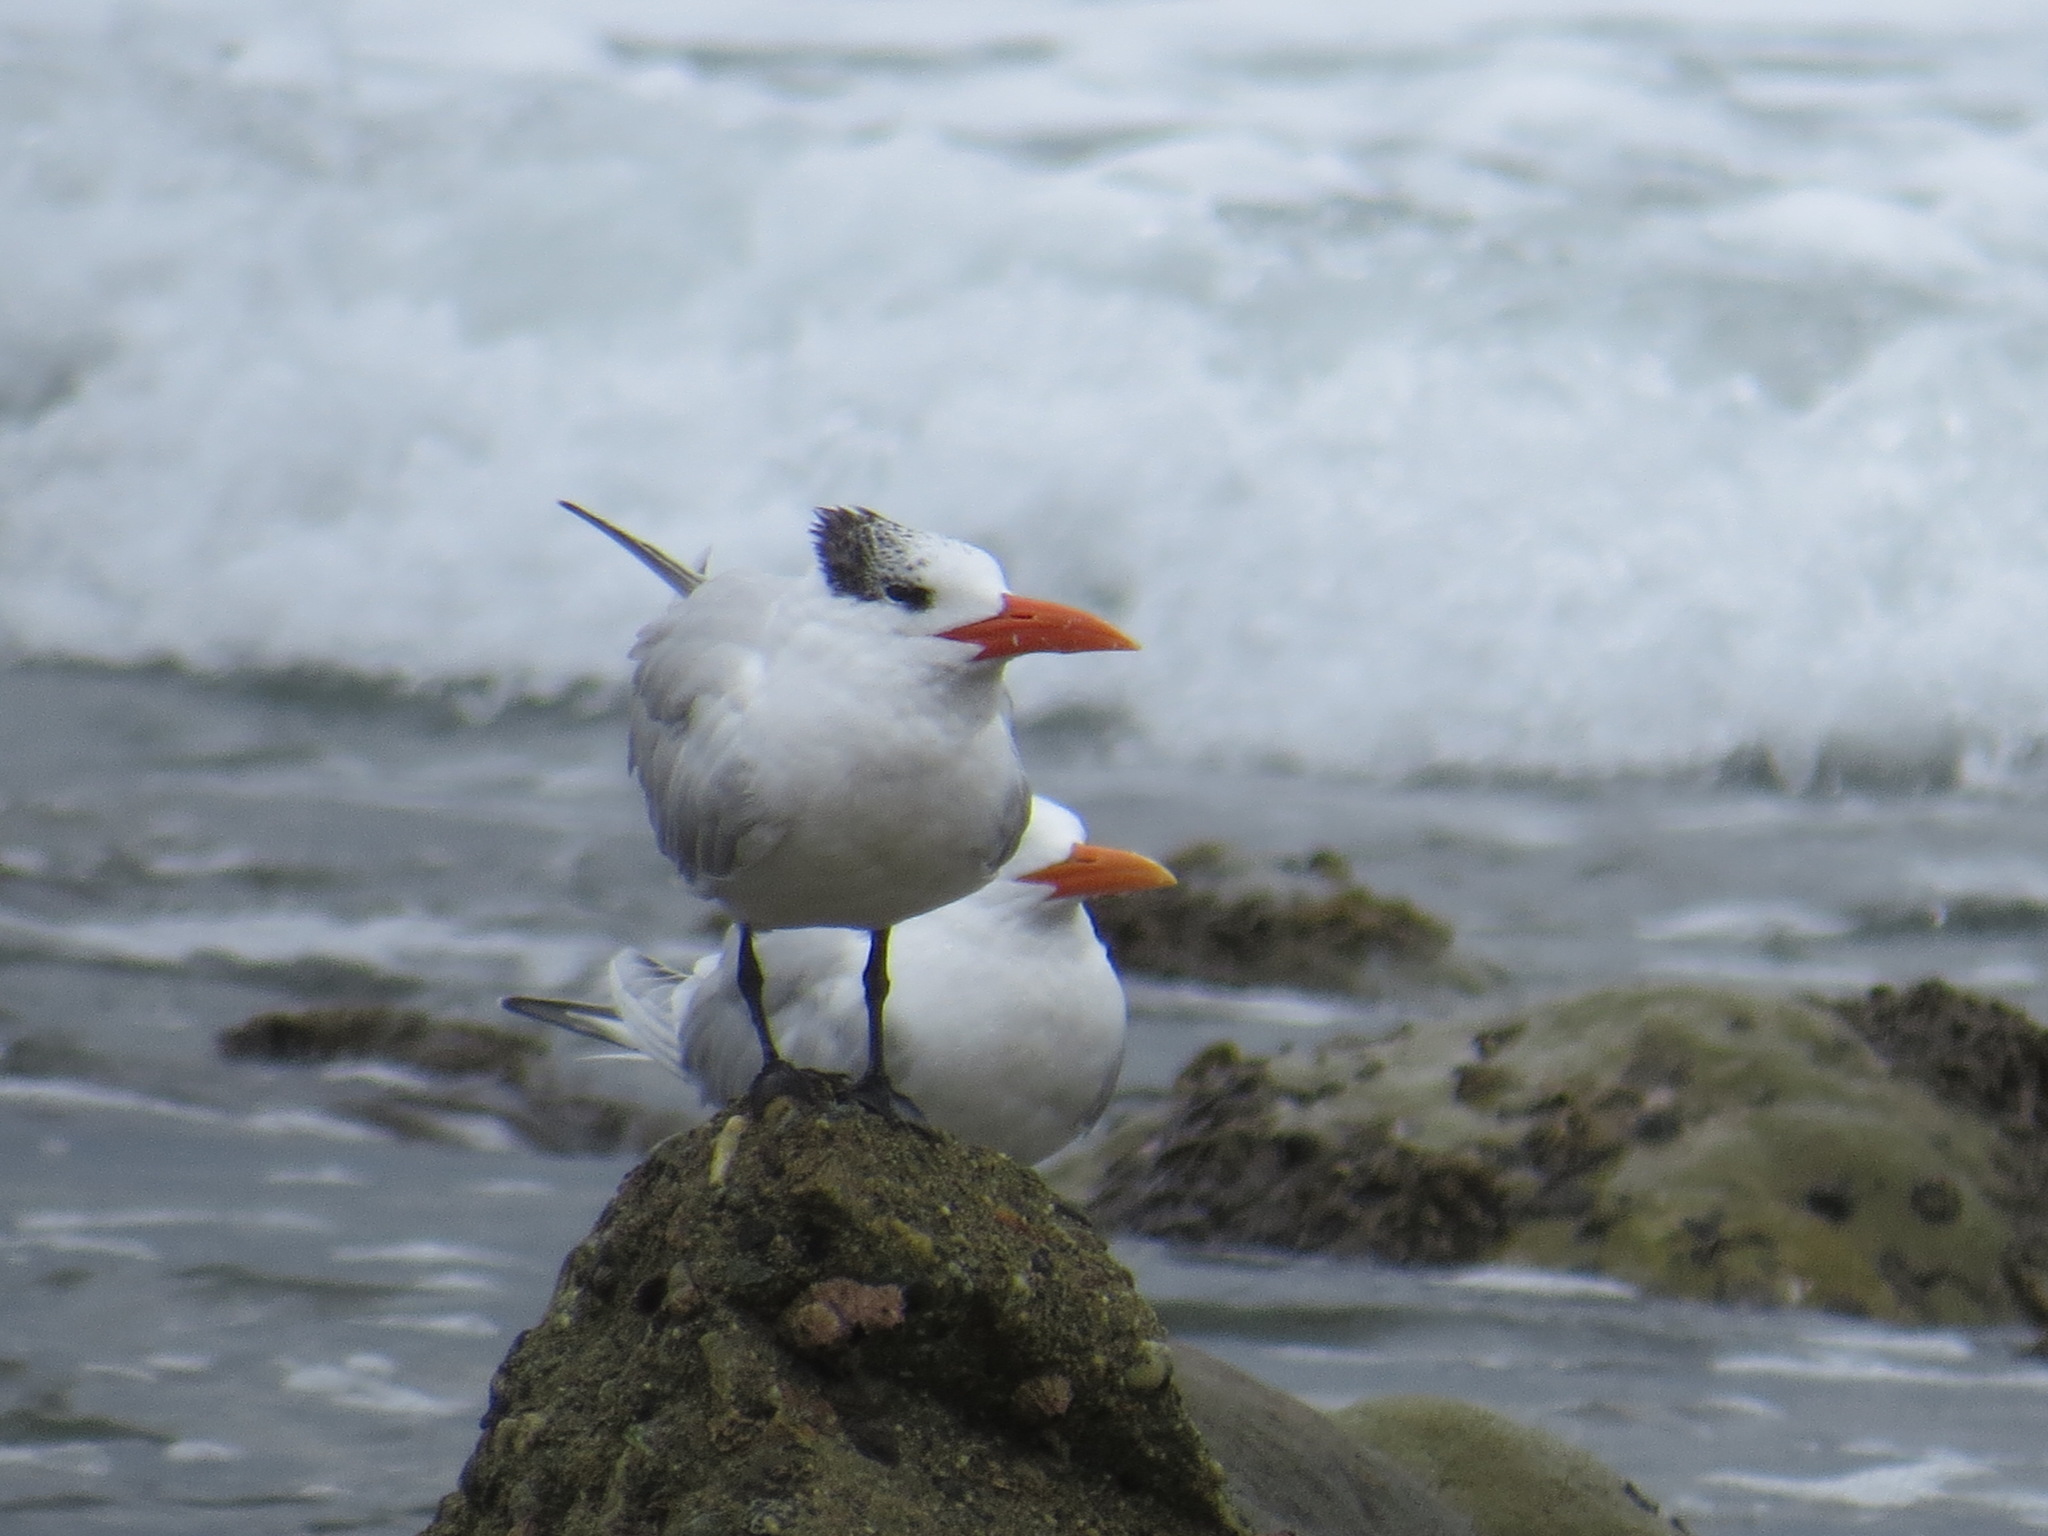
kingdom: Animalia
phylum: Chordata
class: Aves
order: Charadriiformes
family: Laridae
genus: Thalasseus
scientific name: Thalasseus maximus
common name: Royal tern
